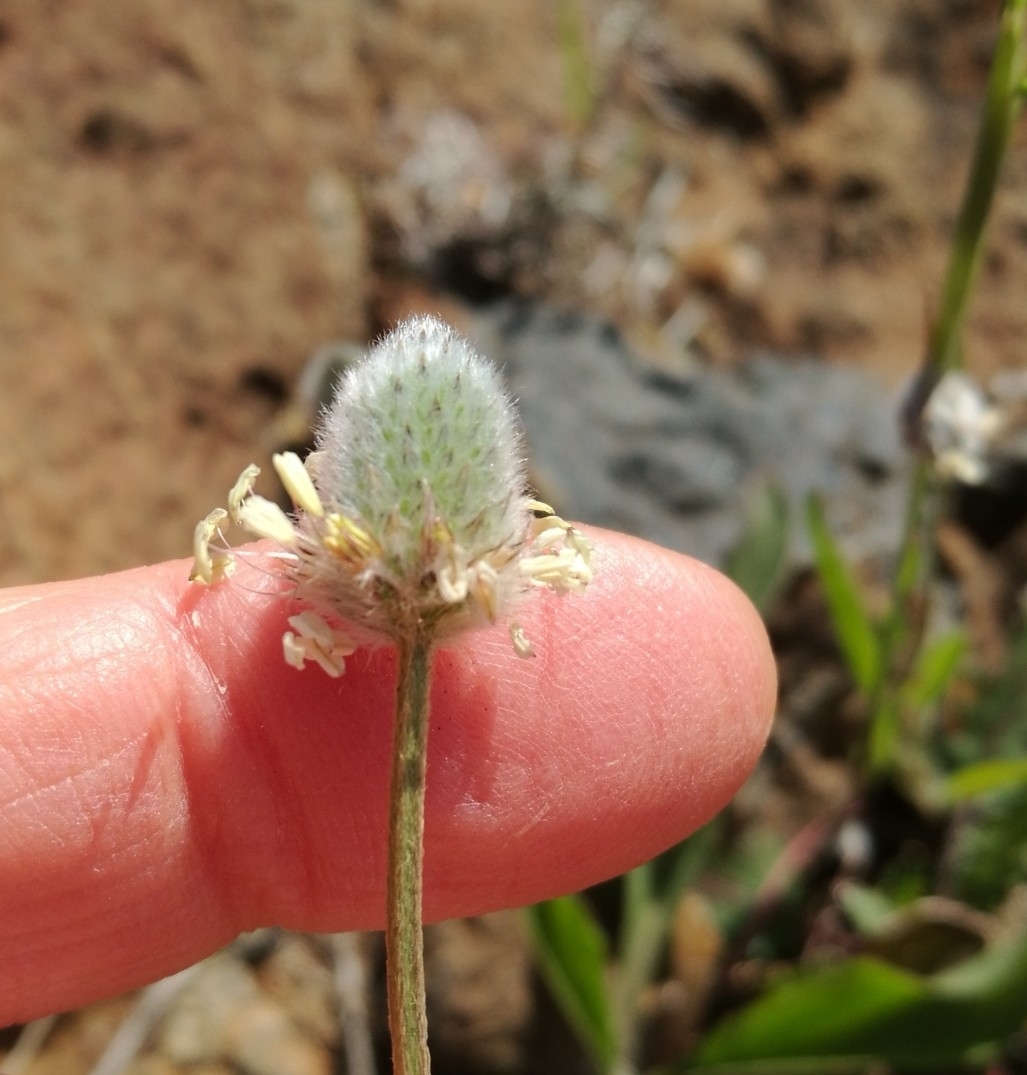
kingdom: Plantae
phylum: Tracheophyta
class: Magnoliopsida
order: Lamiales
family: Plantaginaceae
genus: Plantago
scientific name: Plantago lagopus
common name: Hare-foot plantain
